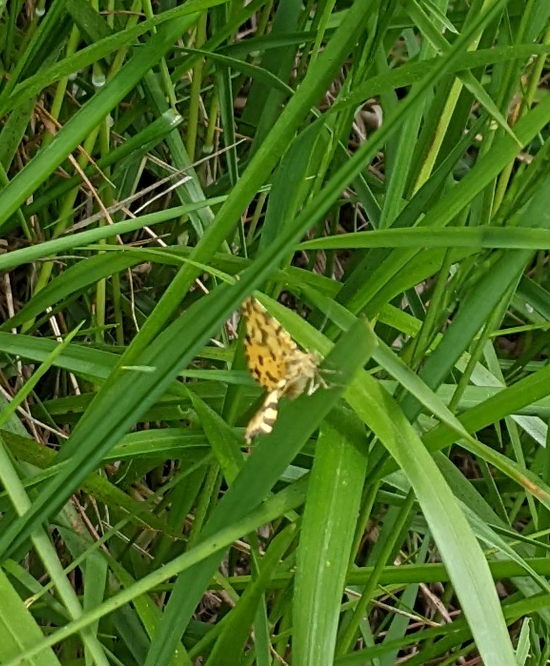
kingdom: Animalia
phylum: Arthropoda
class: Insecta
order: Lepidoptera
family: Geometridae
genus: Pseudopanthera
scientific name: Pseudopanthera macularia
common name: Speckled yellow
